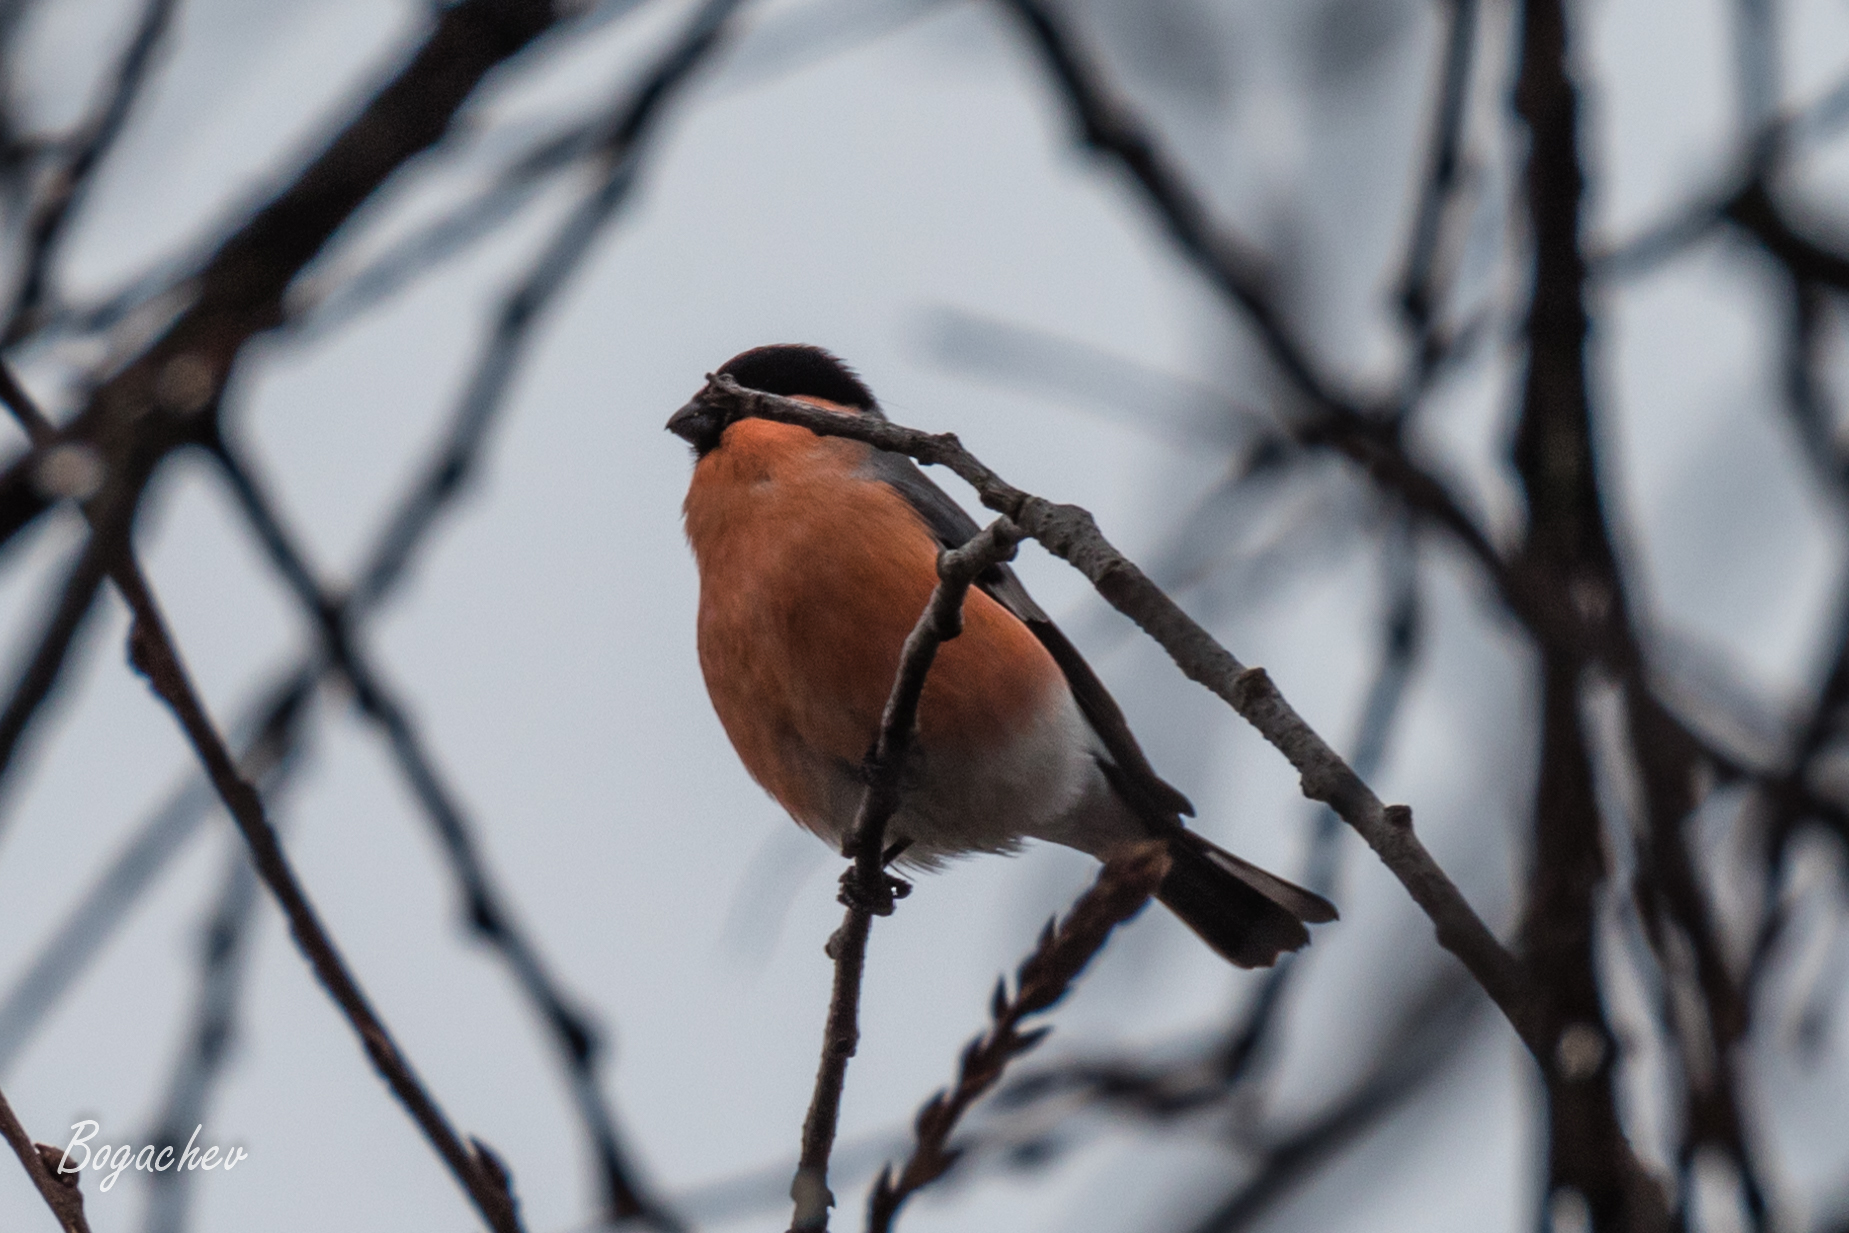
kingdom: Animalia
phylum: Chordata
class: Aves
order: Passeriformes
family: Fringillidae
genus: Pyrrhula
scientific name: Pyrrhula pyrrhula
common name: Eurasian bullfinch
